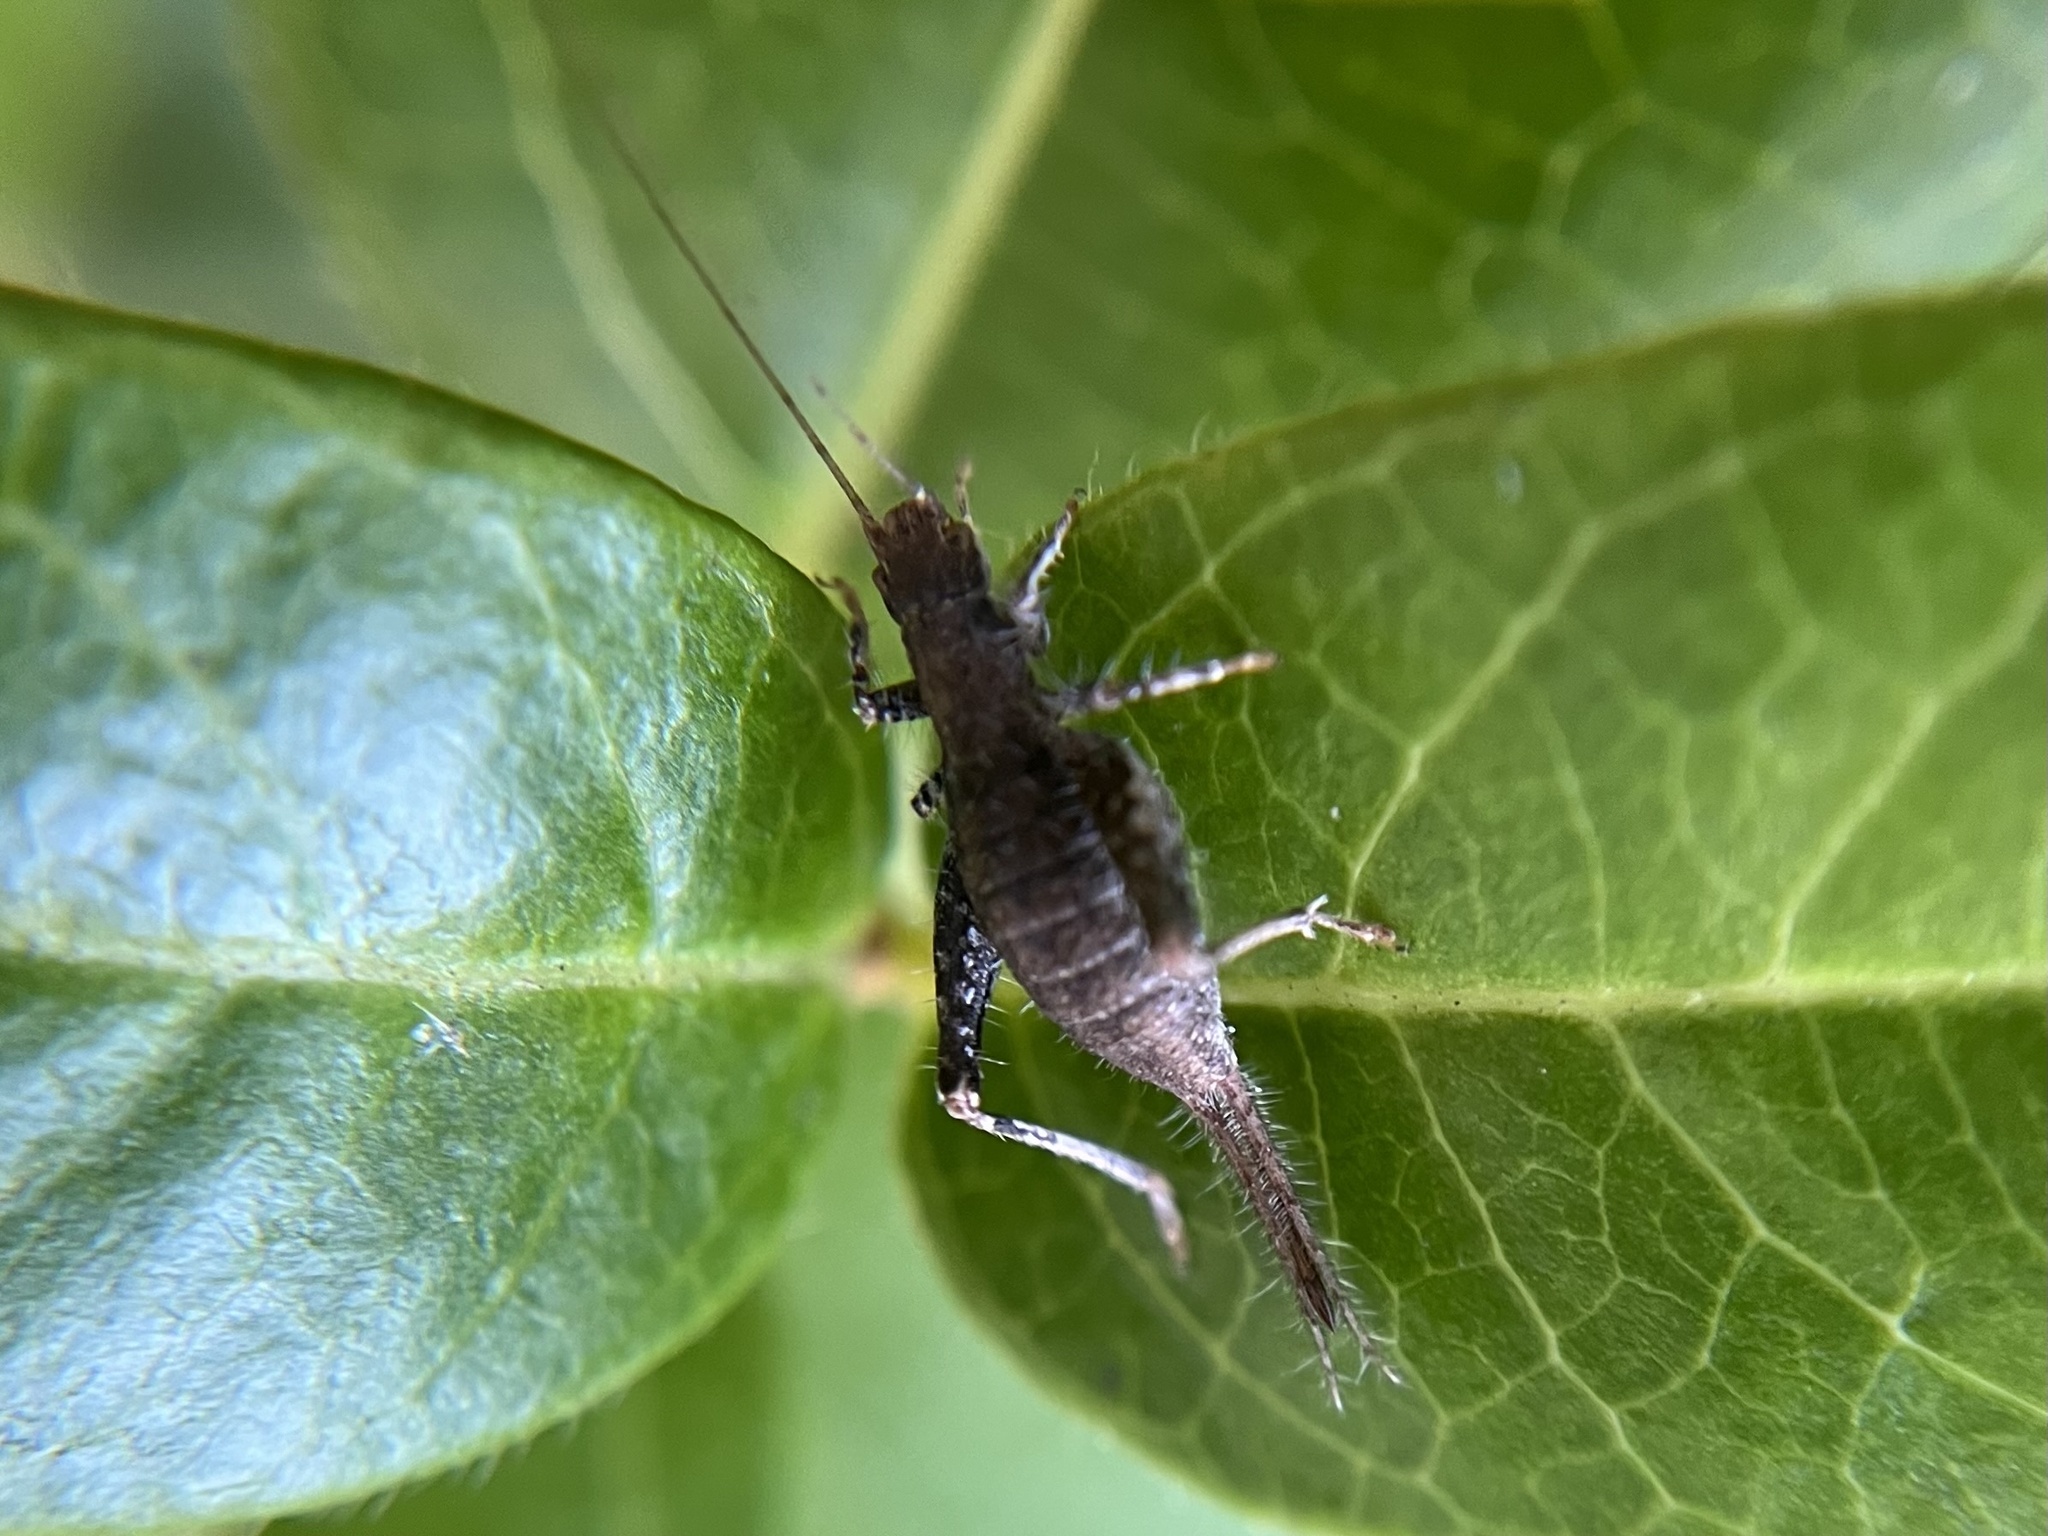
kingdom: Animalia
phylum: Arthropoda
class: Insecta
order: Orthoptera
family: Mogoplistidae
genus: Arachnocephalus
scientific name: Arachnocephalus vestitus
